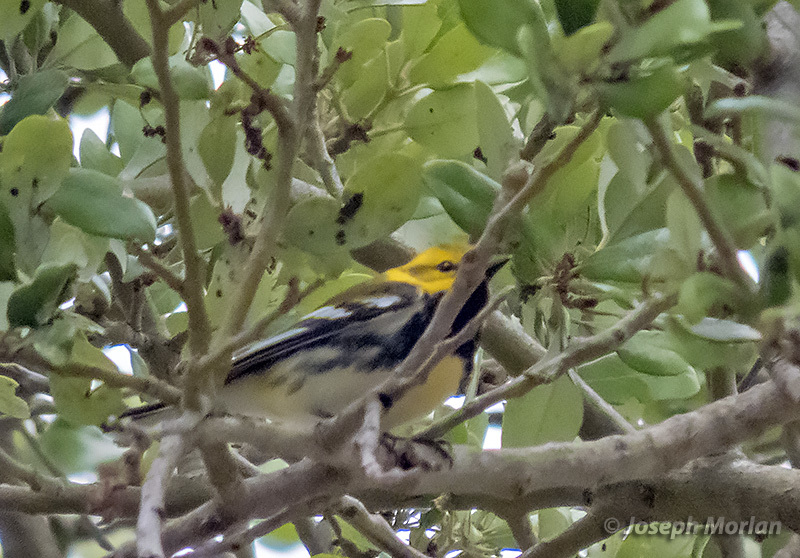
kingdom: Animalia
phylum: Chordata
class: Aves
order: Passeriformes
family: Parulidae
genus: Setophaga
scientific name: Setophaga virens
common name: Black-throated green warbler
